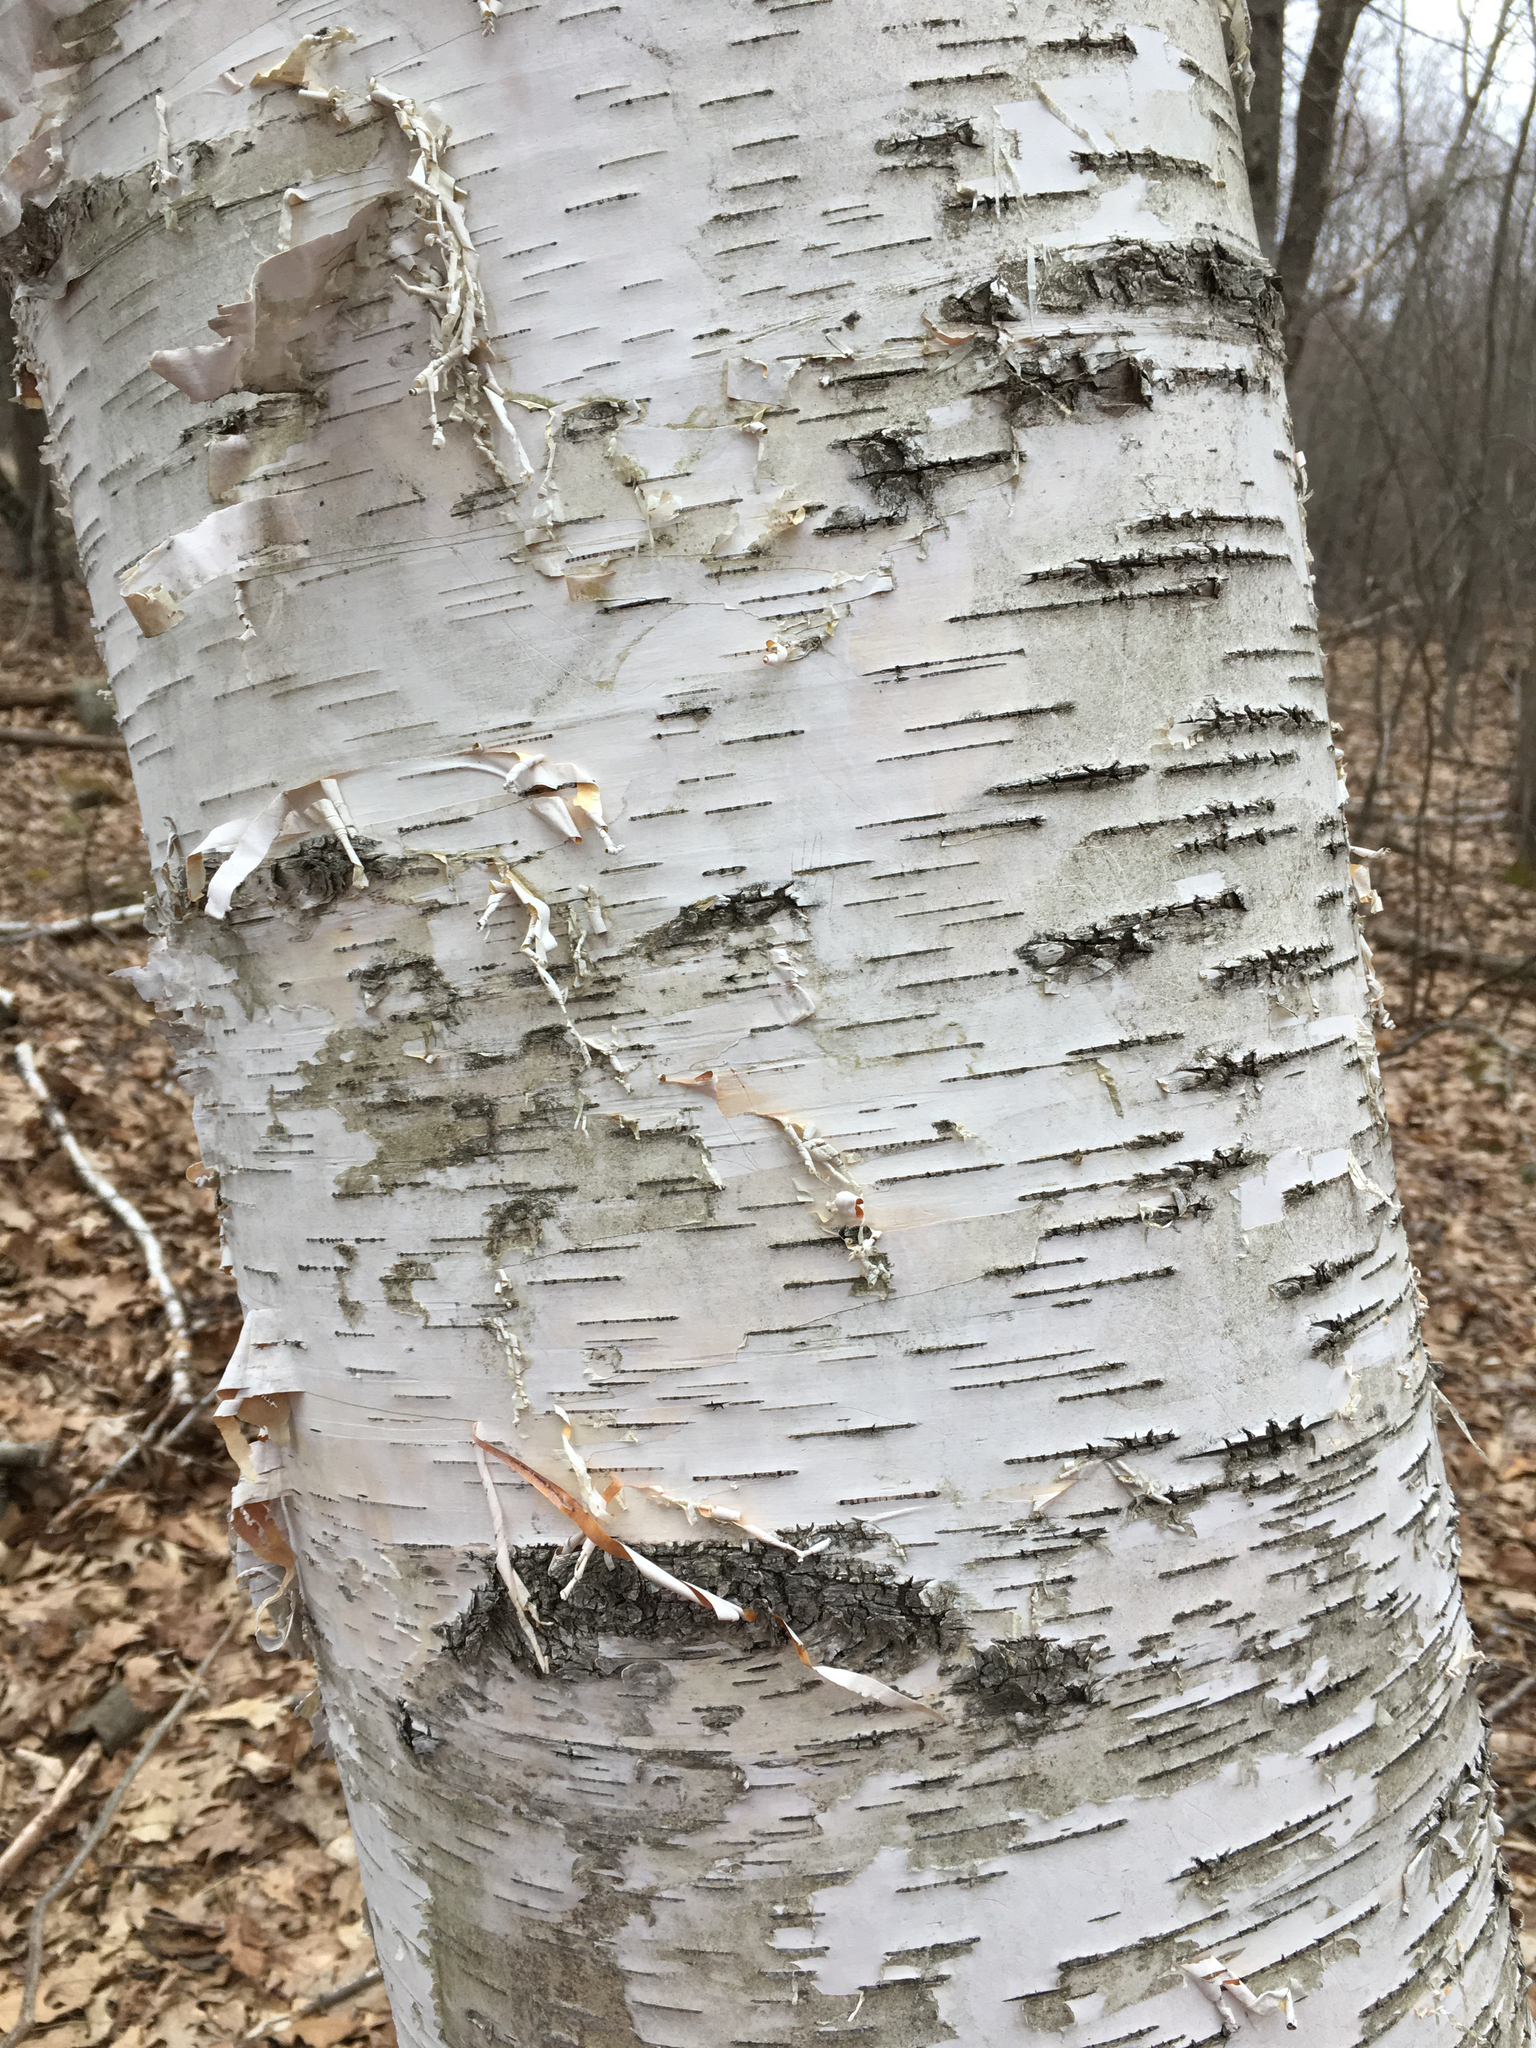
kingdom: Plantae
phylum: Tracheophyta
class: Magnoliopsida
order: Fagales
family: Betulaceae
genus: Betula
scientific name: Betula papyrifera
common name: Paper birch
